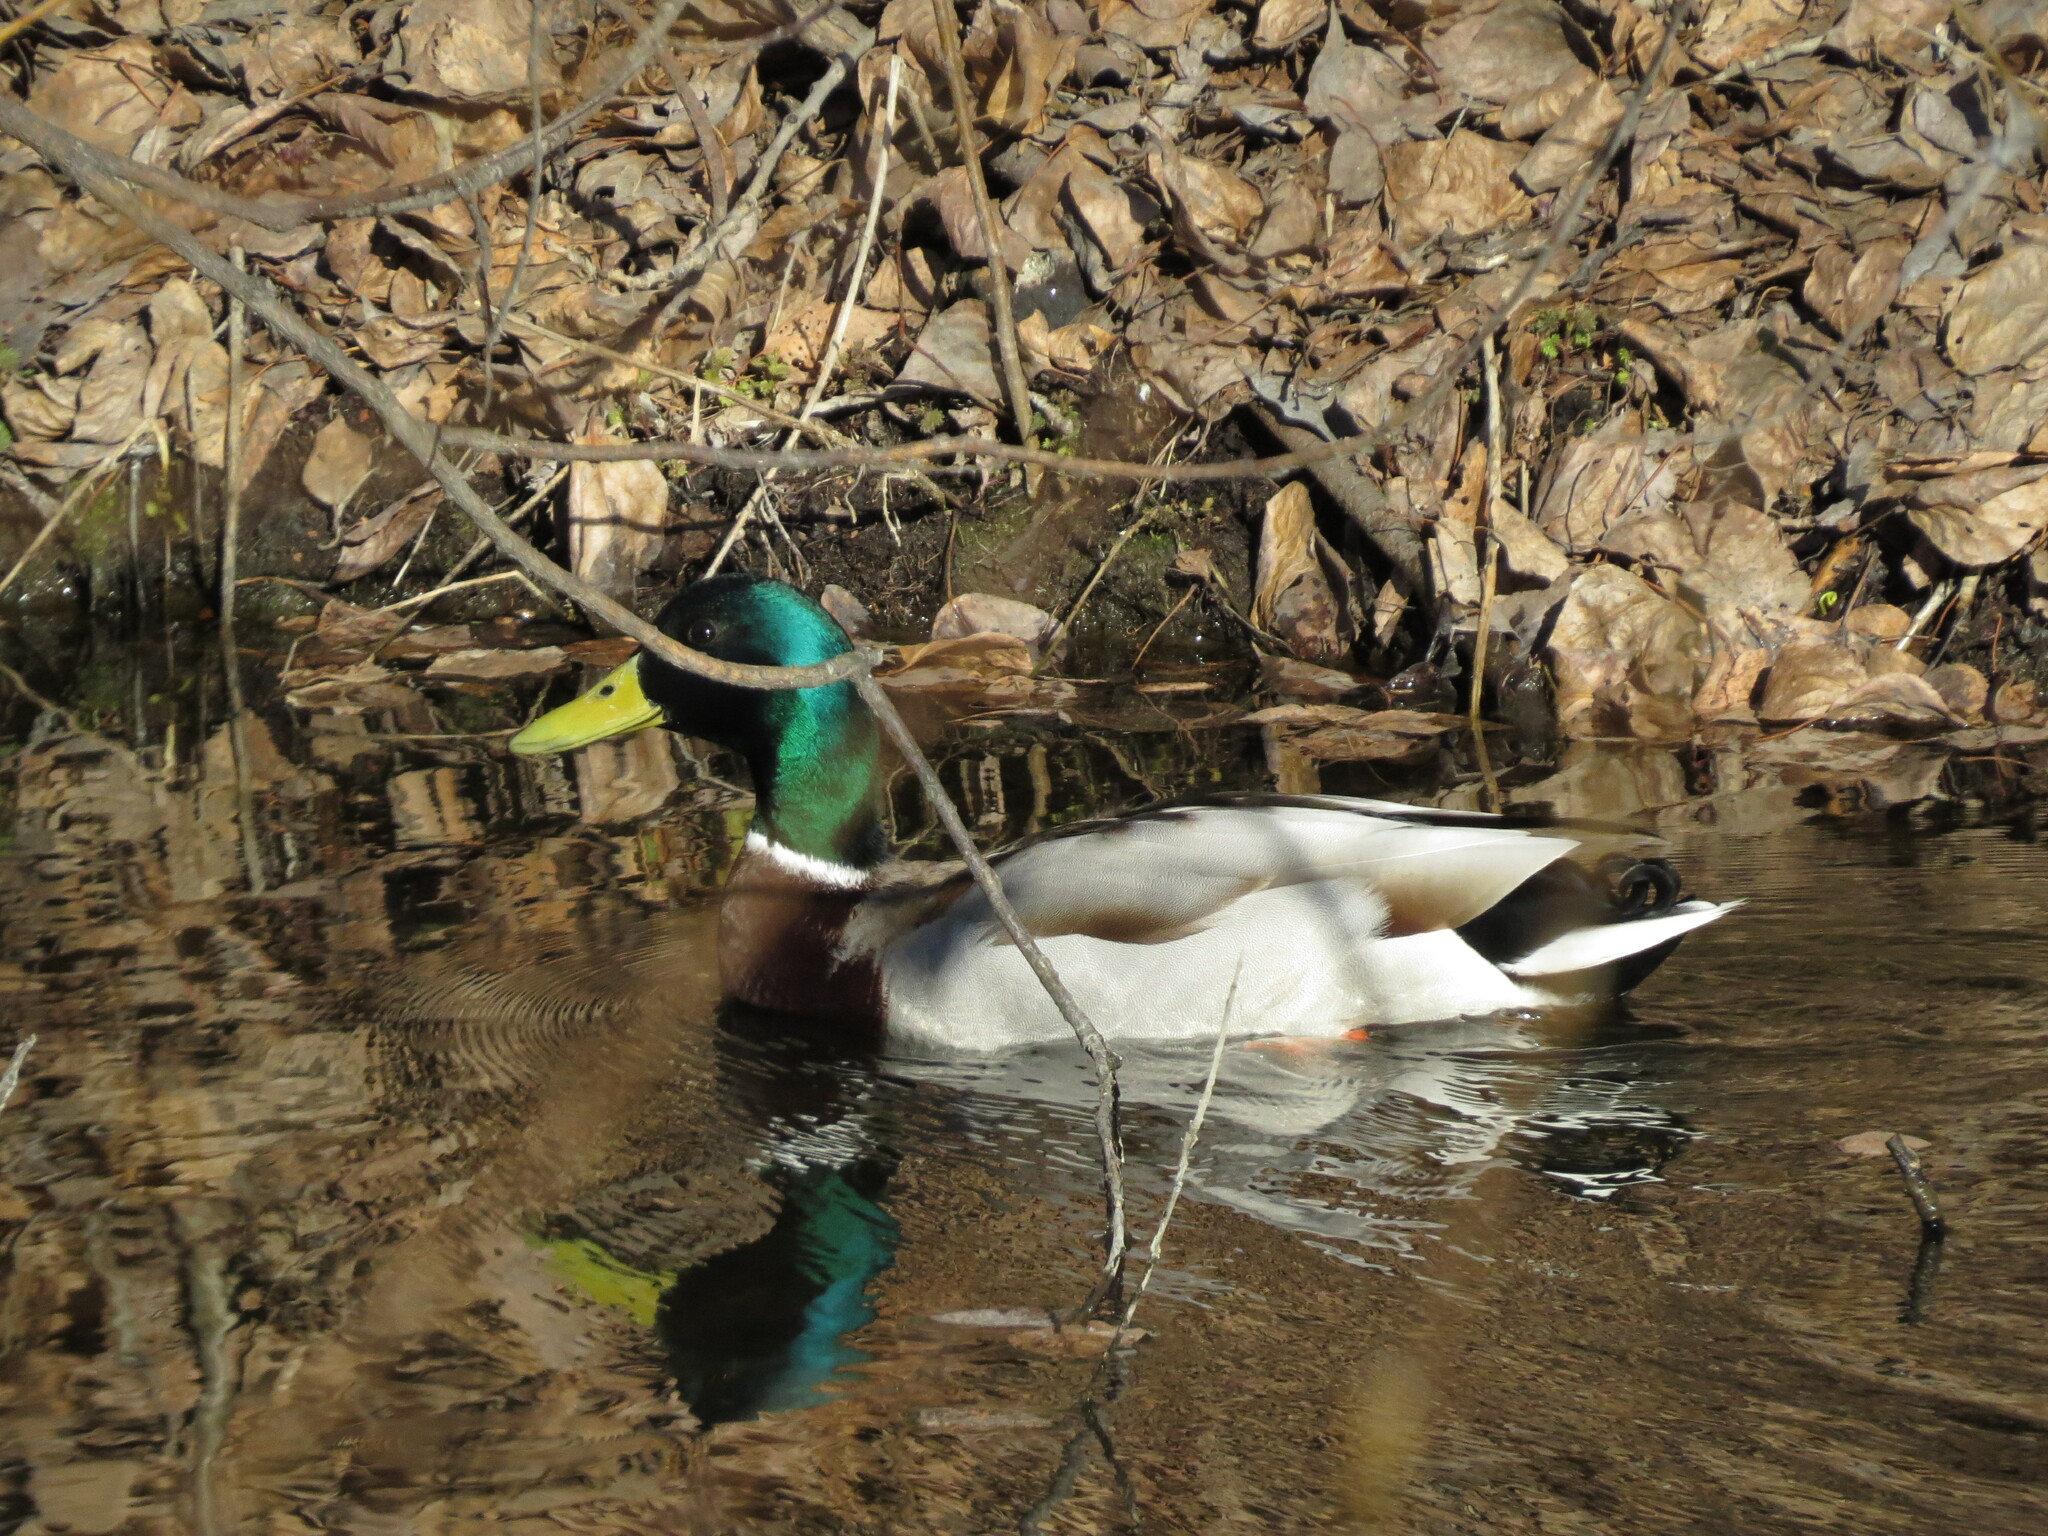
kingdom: Animalia
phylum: Chordata
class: Aves
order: Anseriformes
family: Anatidae
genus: Anas
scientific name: Anas platyrhynchos
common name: Mallard
